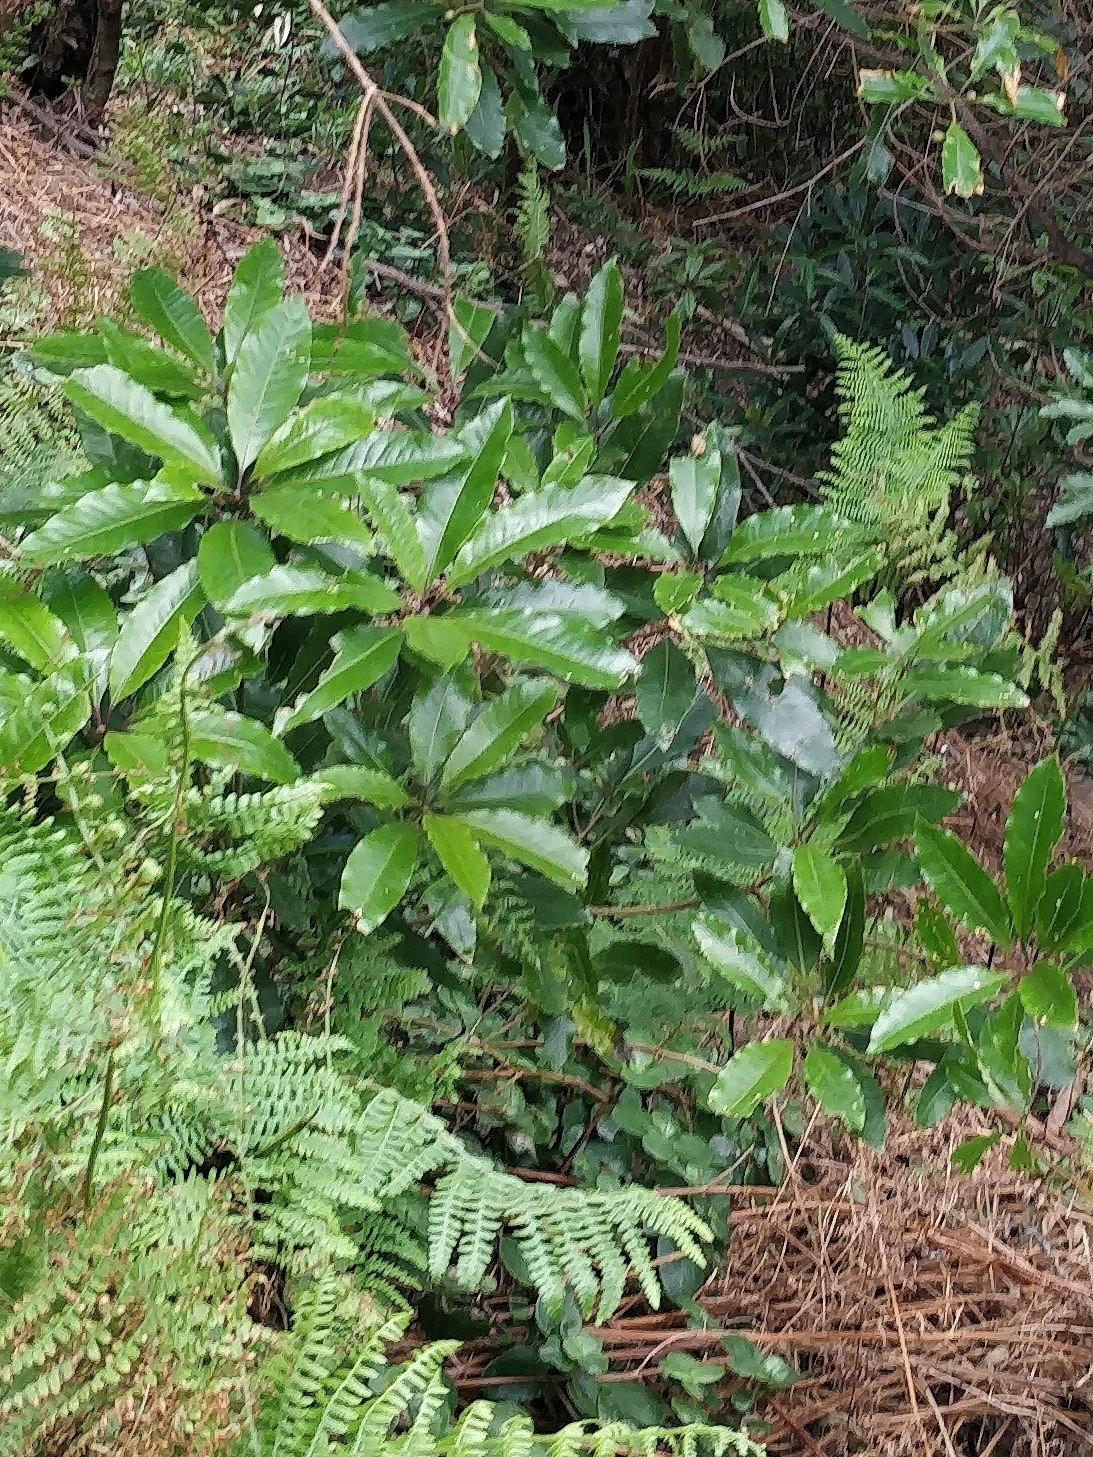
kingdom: Plantae
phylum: Tracheophyta
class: Magnoliopsida
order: Apiales
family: Pittosporaceae
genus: Pittosporum
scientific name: Pittosporum undulatum
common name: Australian cheesewood
